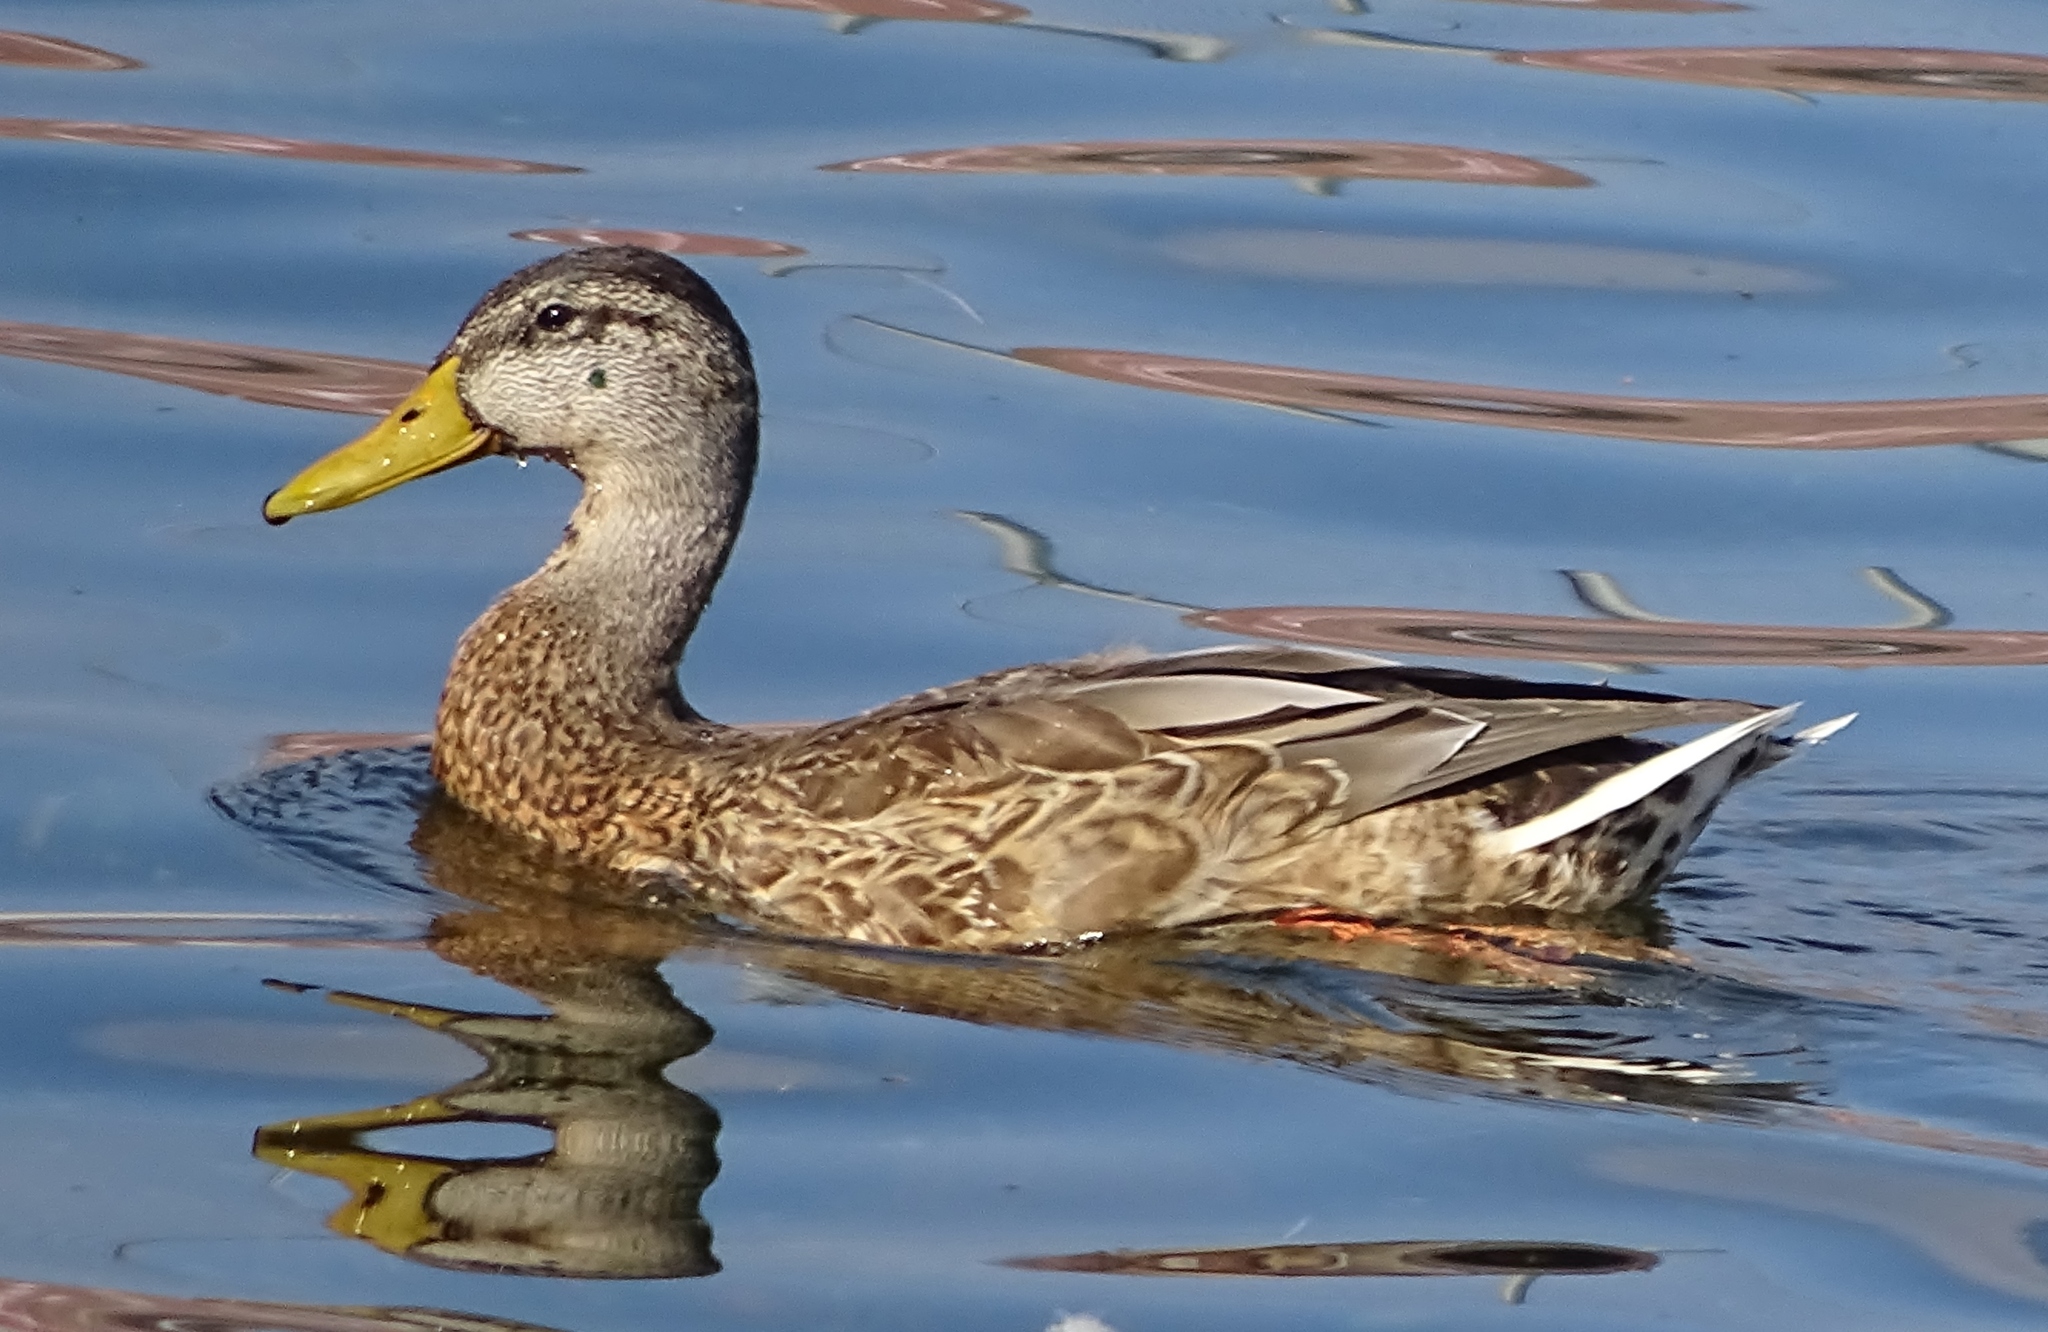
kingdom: Animalia
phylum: Chordata
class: Aves
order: Anseriformes
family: Anatidae
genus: Anas
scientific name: Anas platyrhynchos
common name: Mallard
